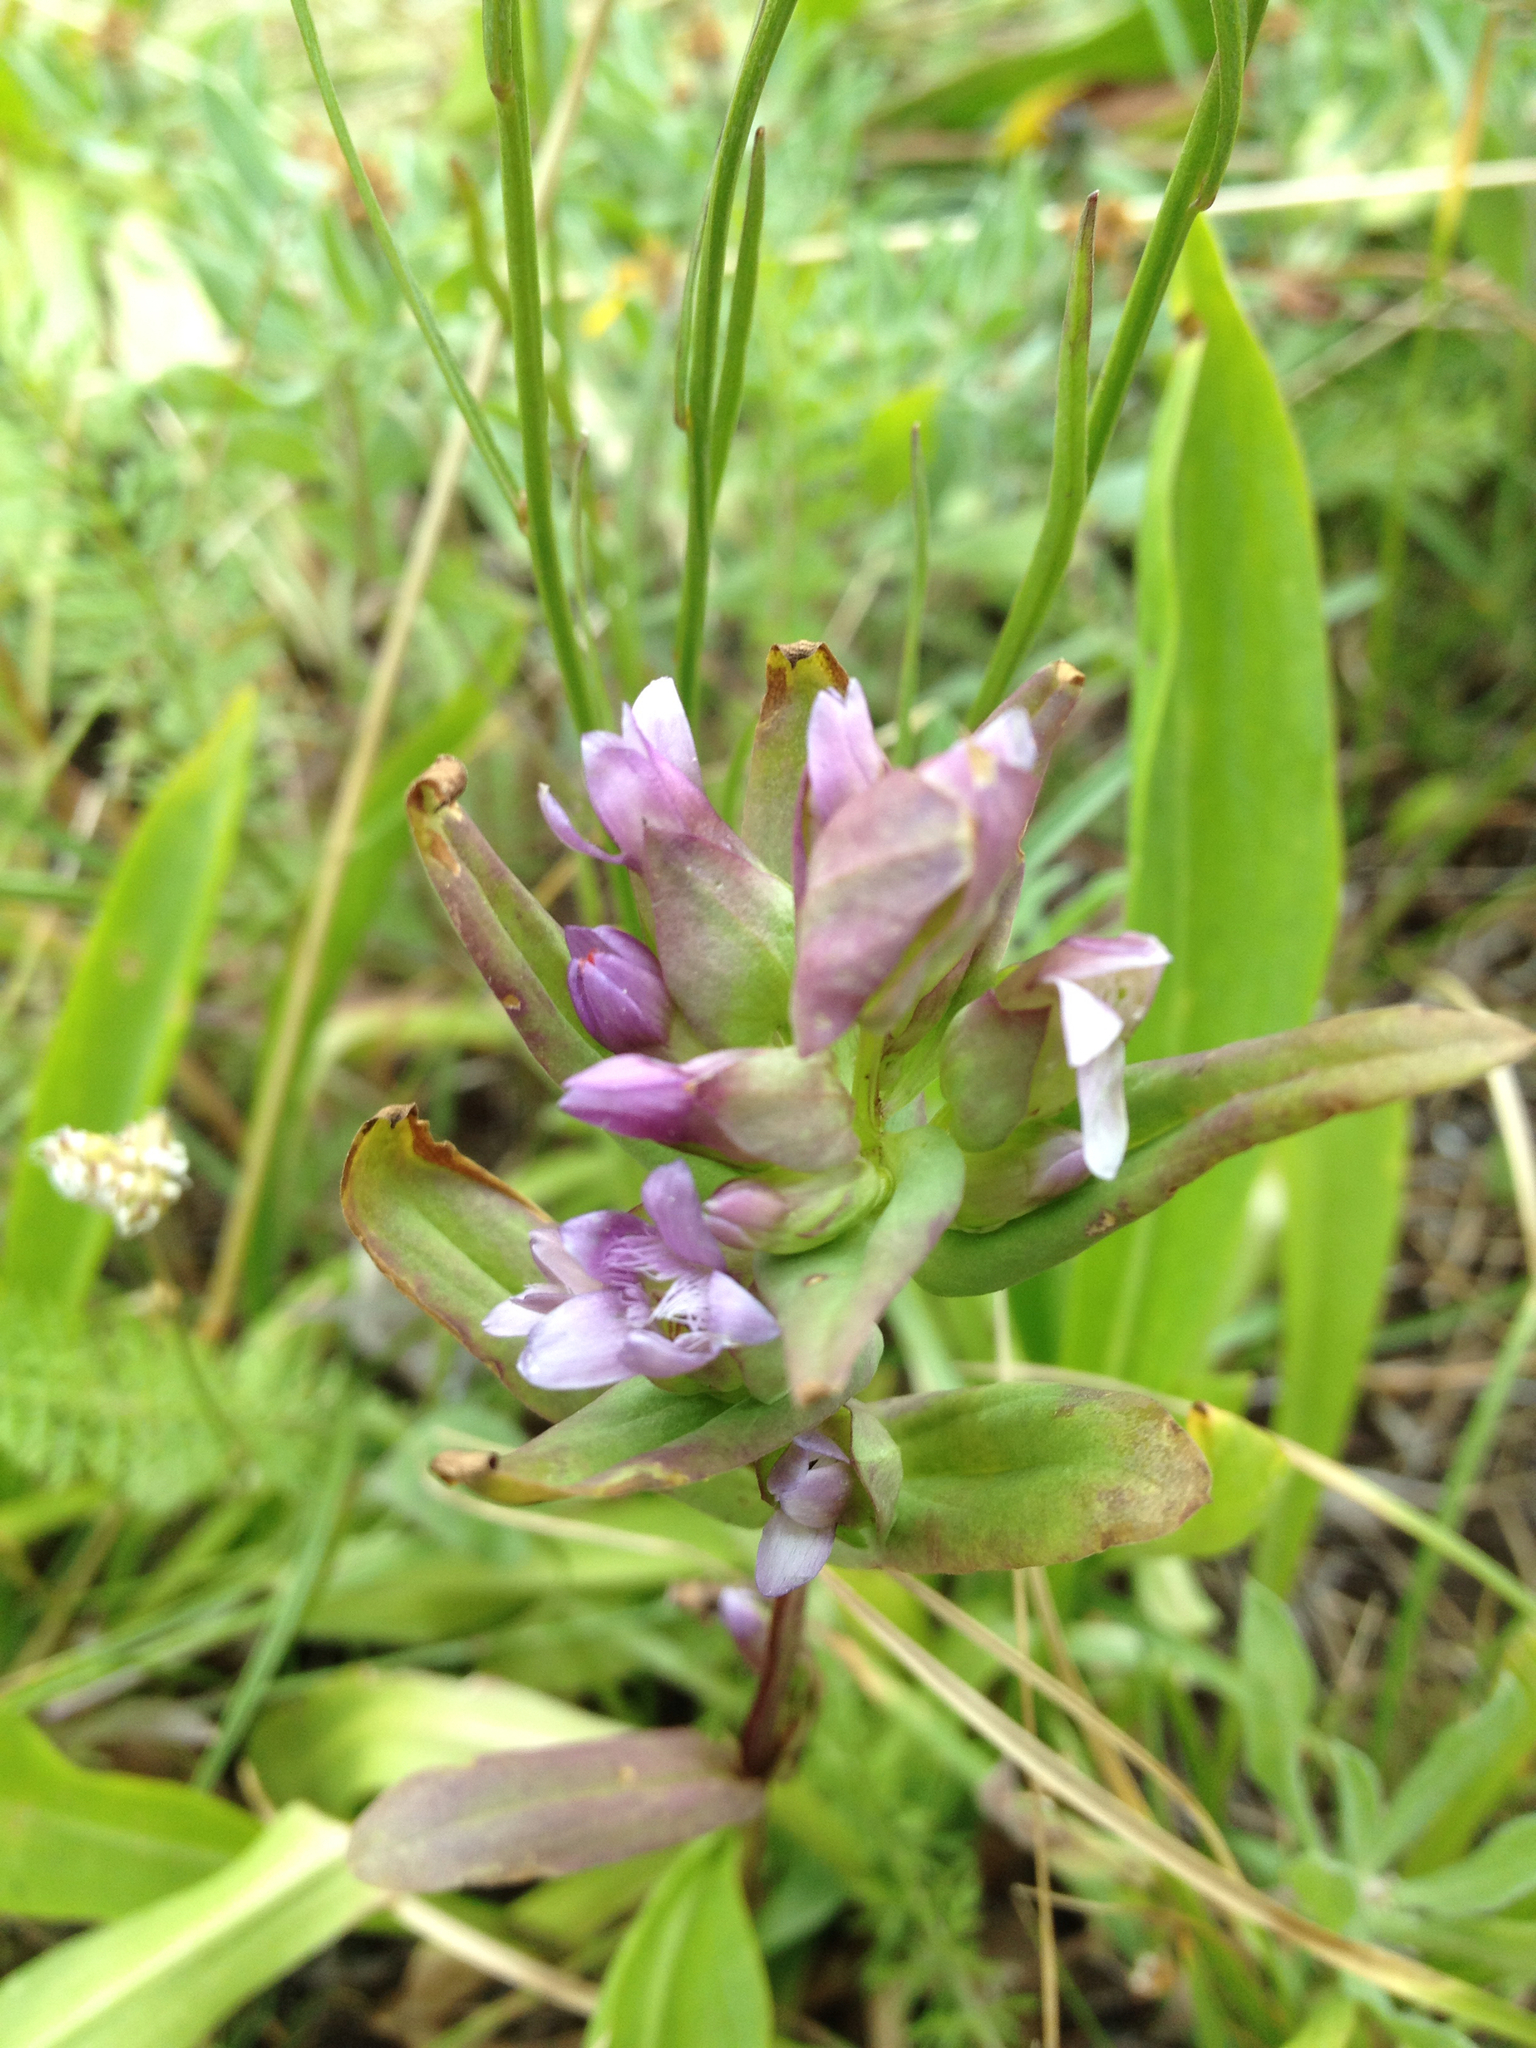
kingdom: Plantae
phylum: Tracheophyta
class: Magnoliopsida
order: Gentianales
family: Gentianaceae
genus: Gentianella
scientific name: Gentianella amarella
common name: Autumn gentian
